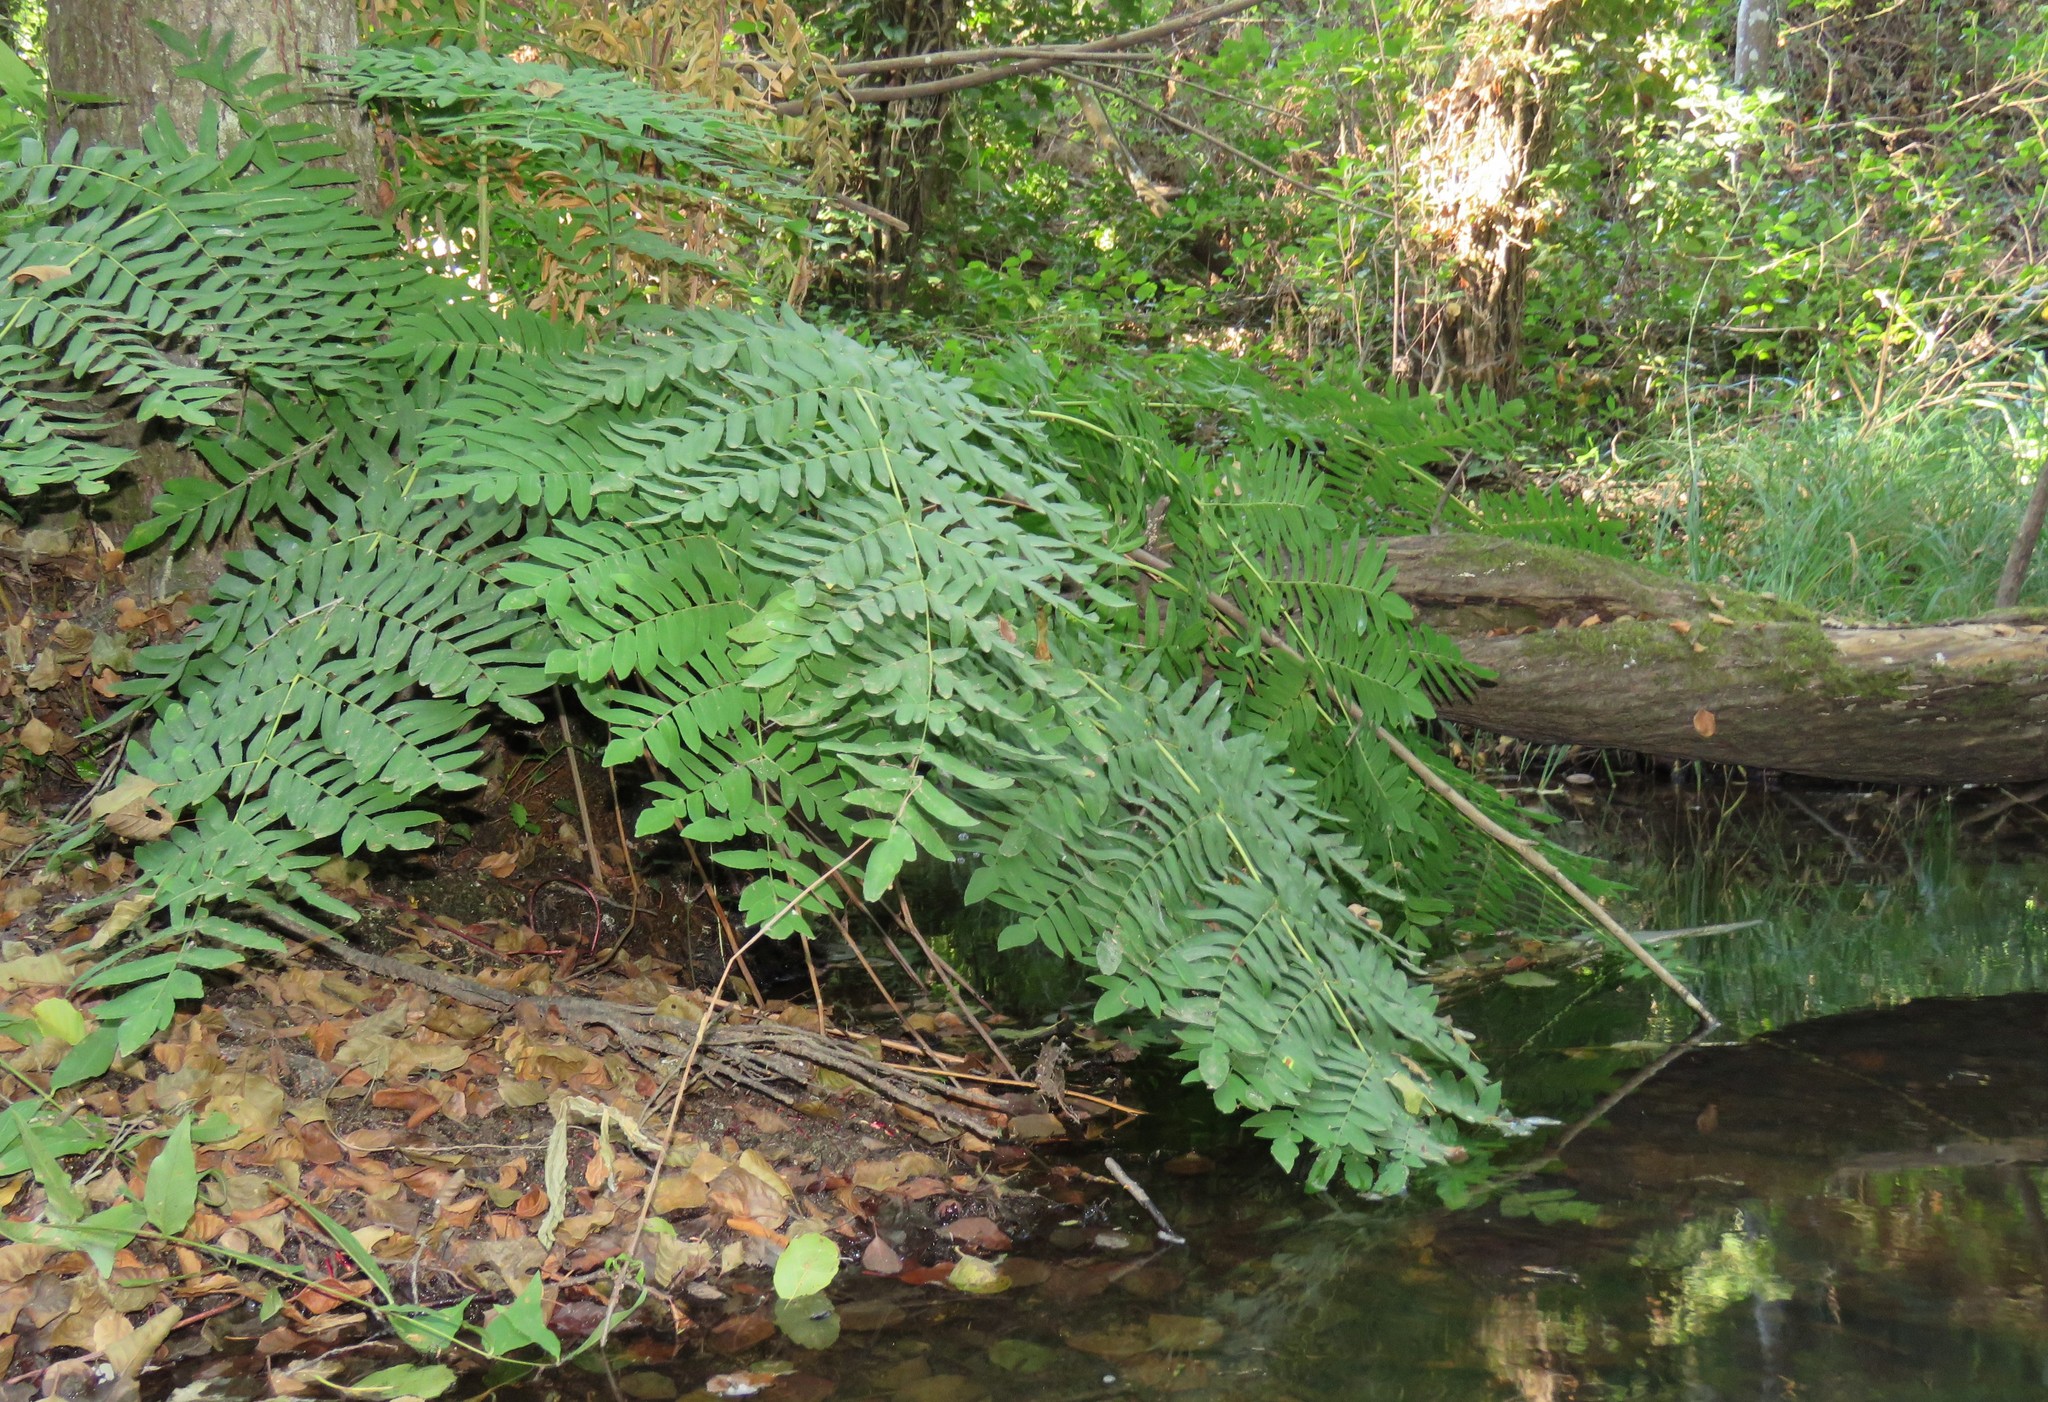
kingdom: Plantae
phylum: Tracheophyta
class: Polypodiopsida
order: Osmundales
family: Osmundaceae
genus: Osmunda
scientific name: Osmunda regalis
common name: Royal fern
